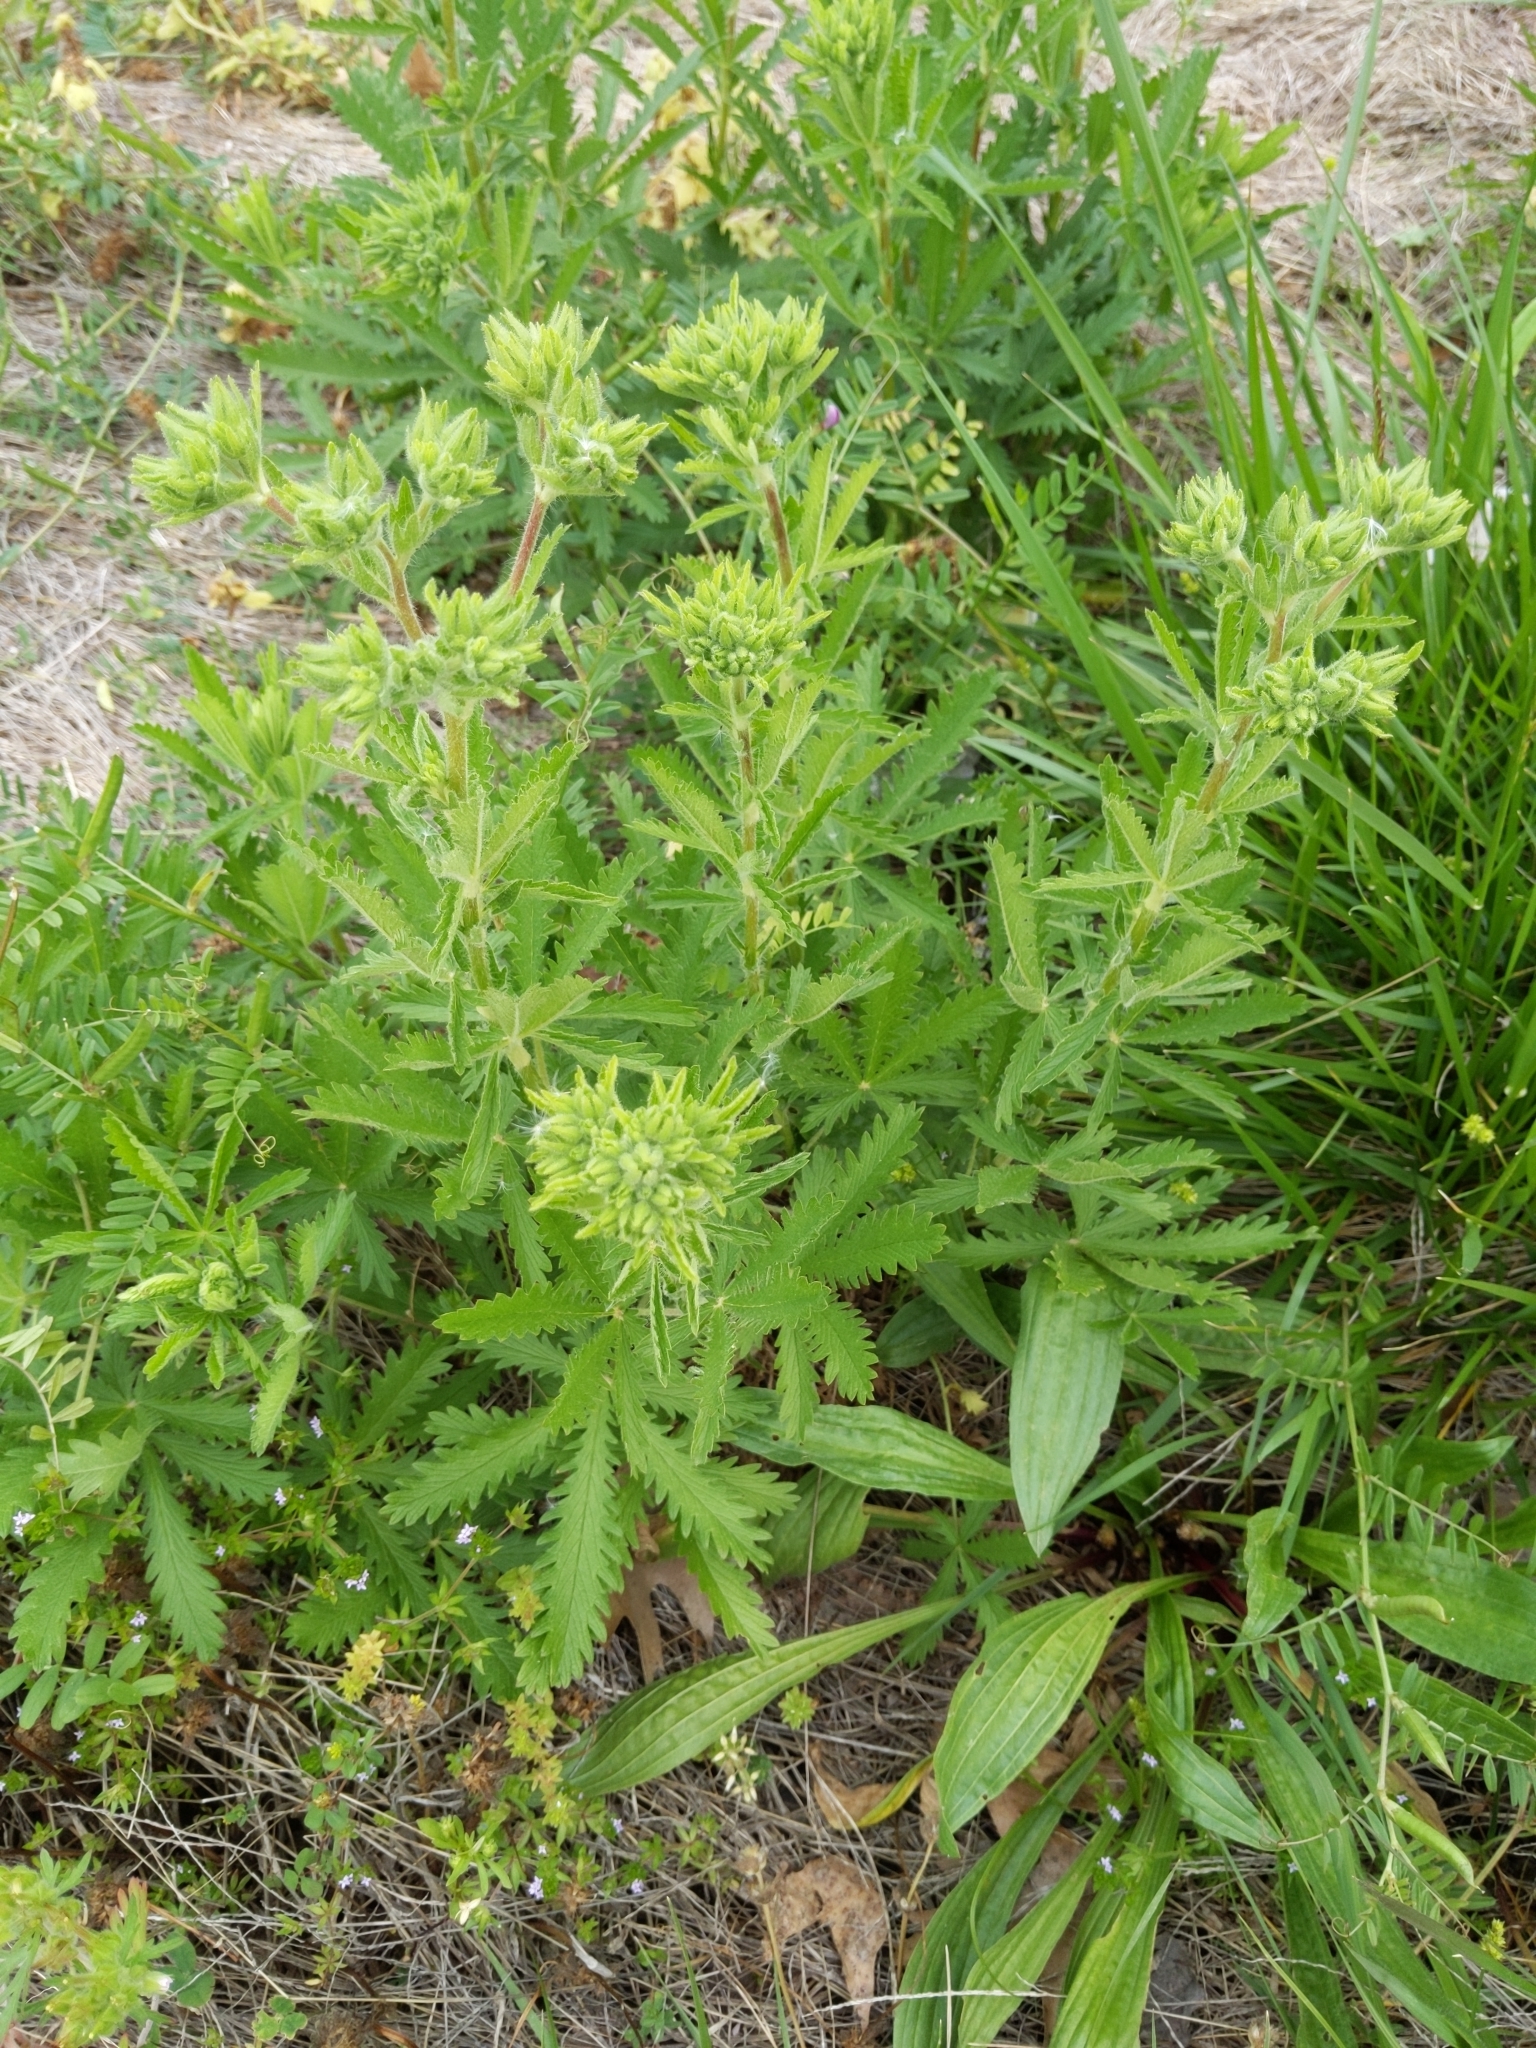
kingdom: Plantae
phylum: Tracheophyta
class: Magnoliopsida
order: Rosales
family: Rosaceae
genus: Potentilla
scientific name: Potentilla recta
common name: Sulphur cinquefoil
